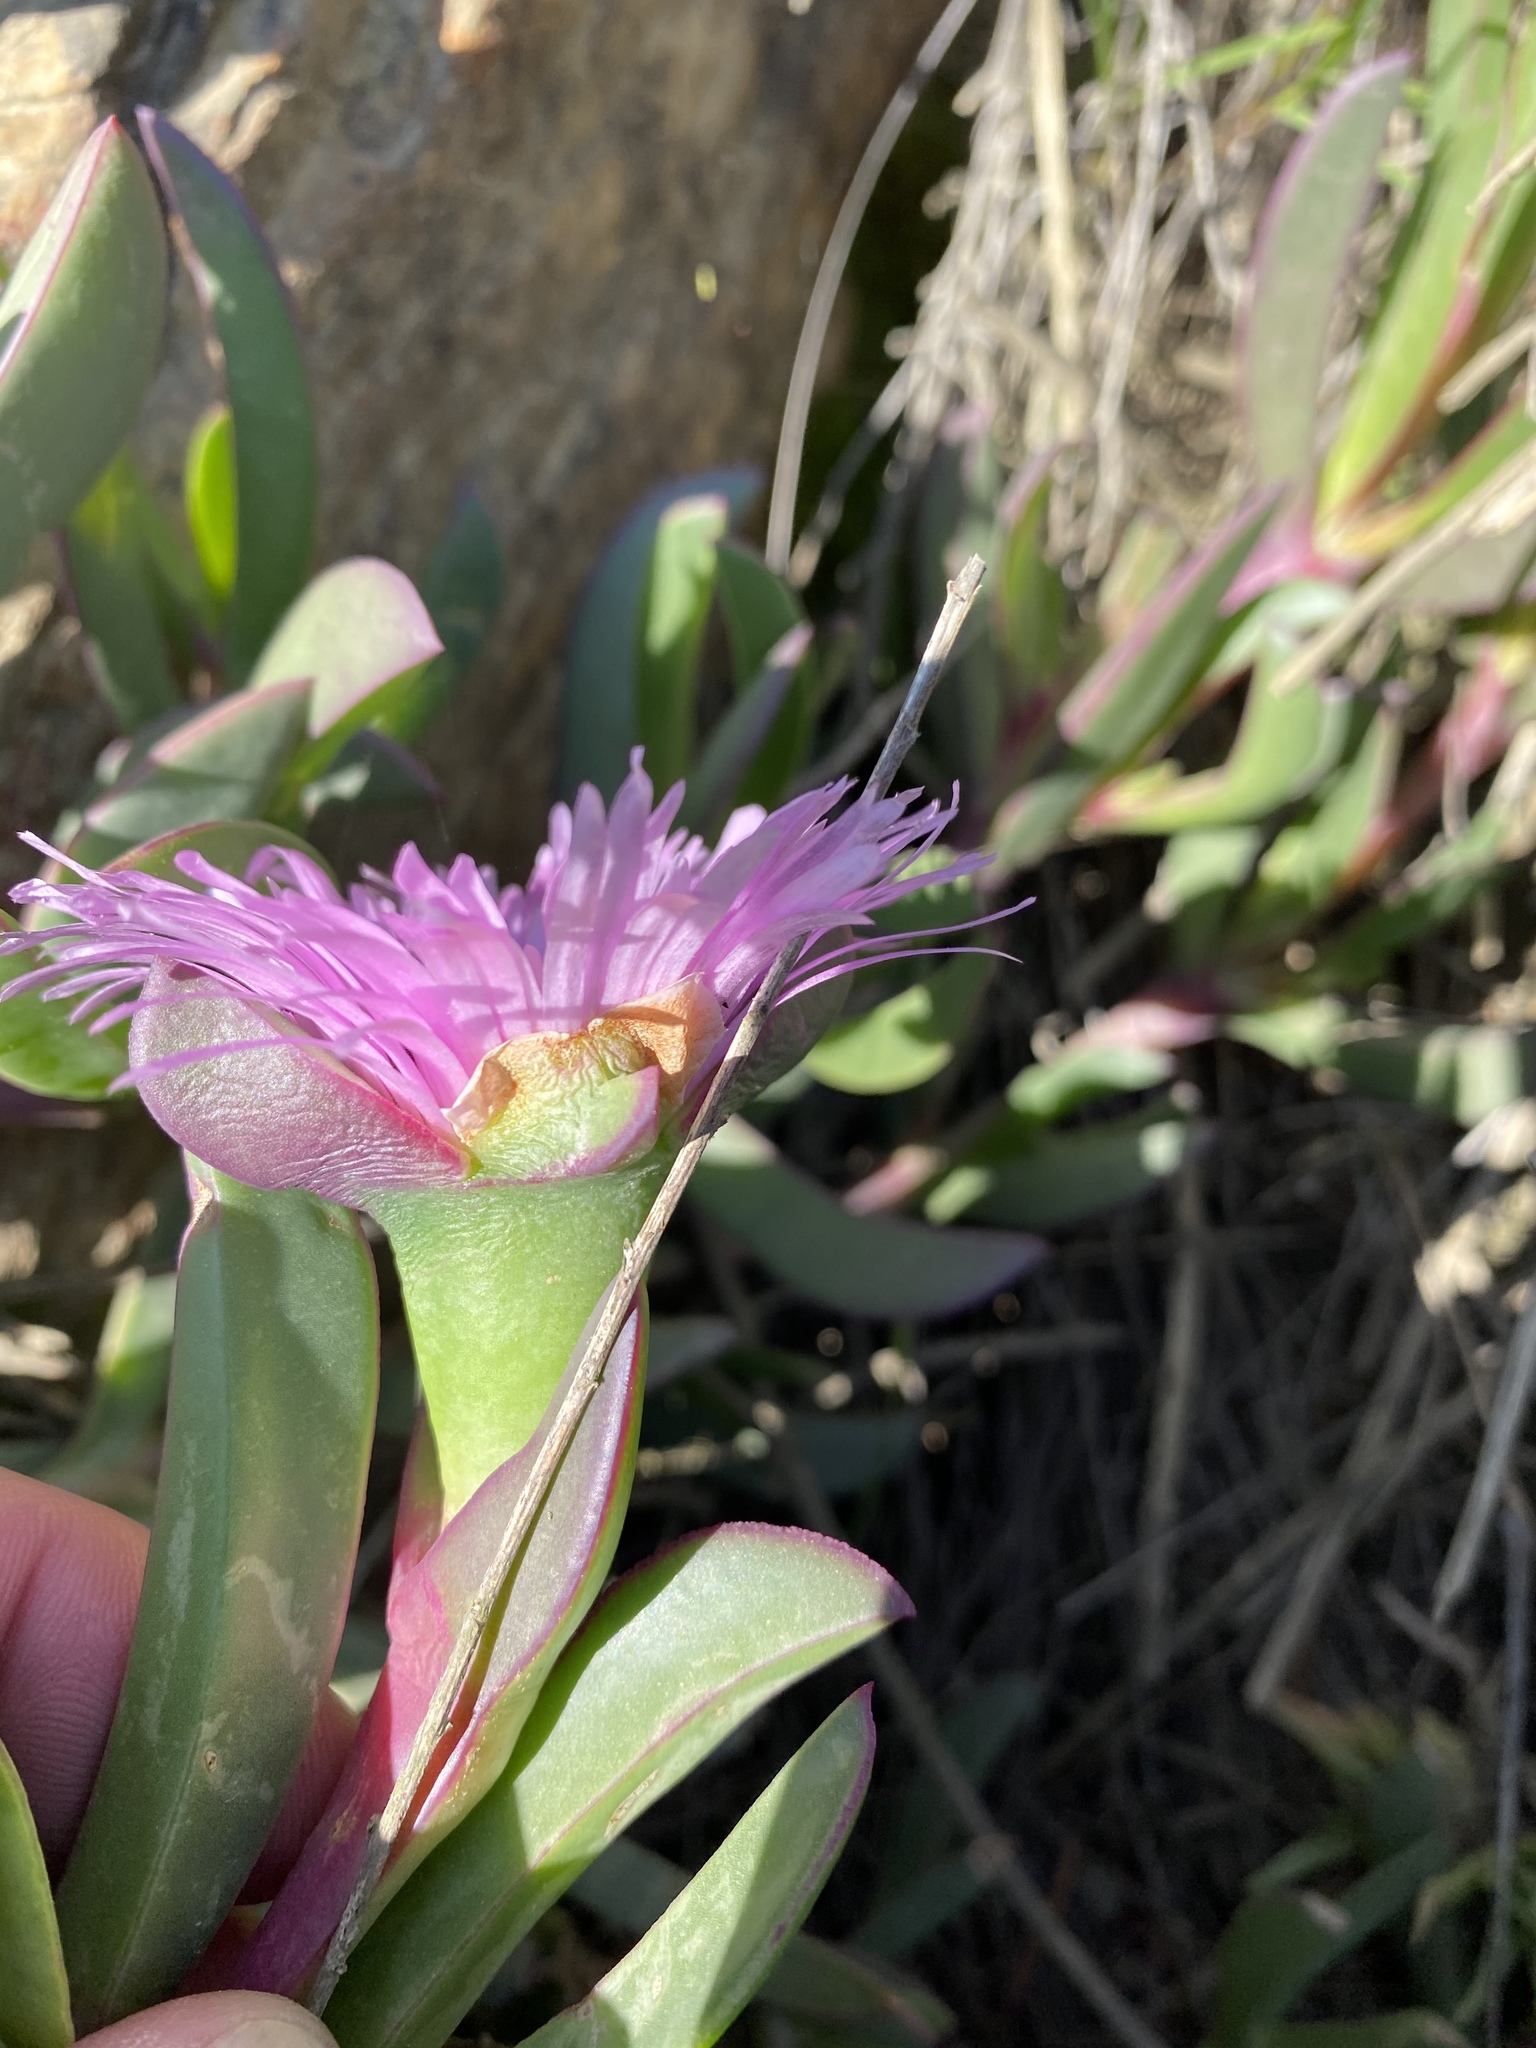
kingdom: Plantae
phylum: Tracheophyta
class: Magnoliopsida
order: Caryophyllales
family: Aizoaceae
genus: Carpobrotus
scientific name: Carpobrotus mellei
